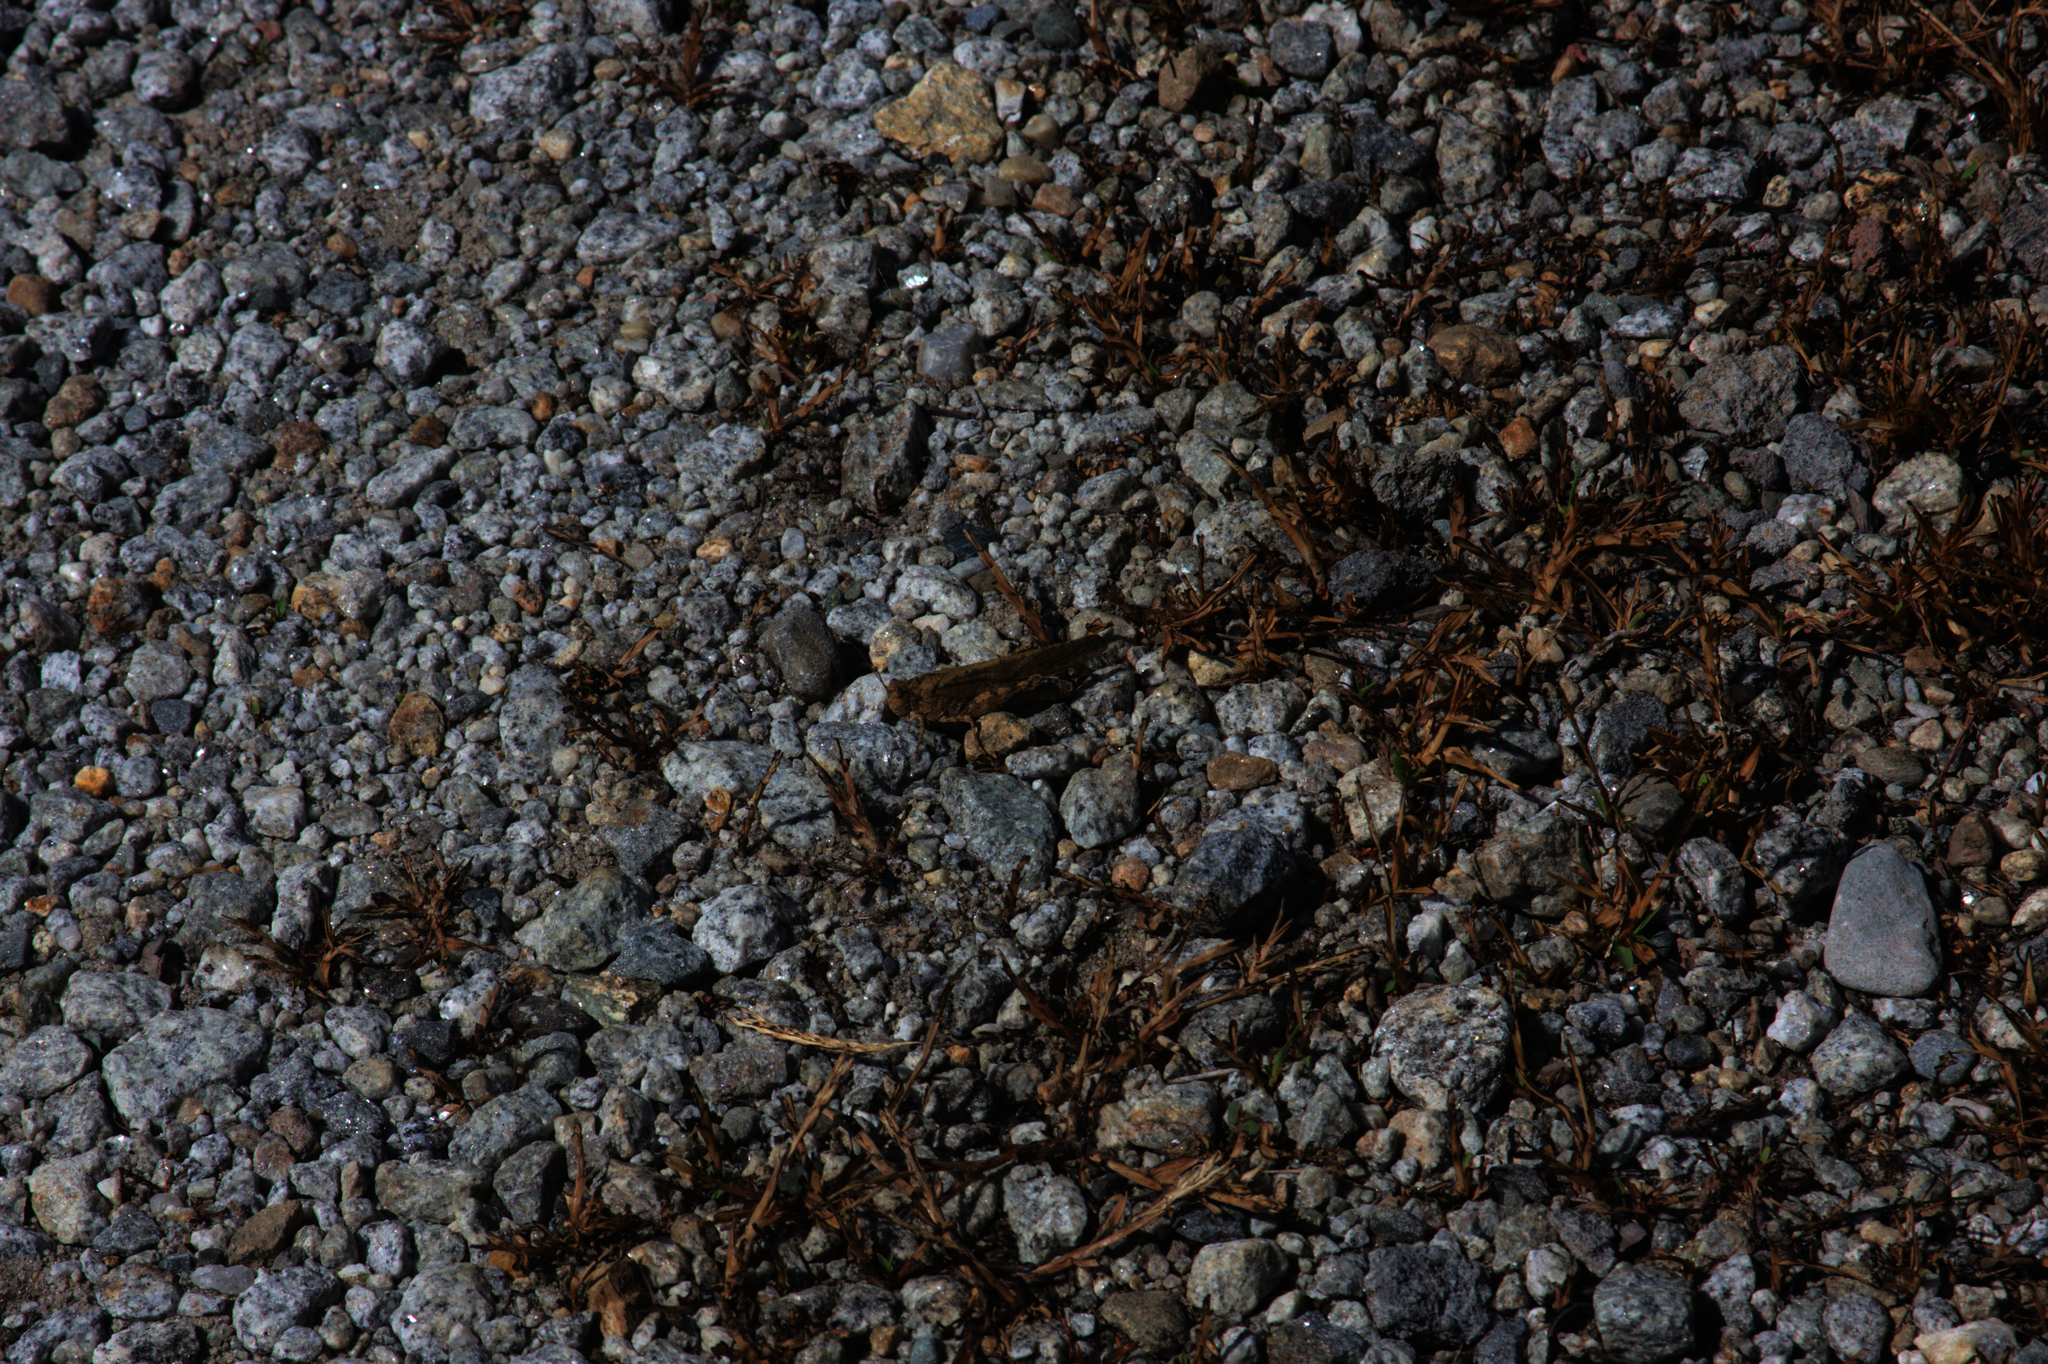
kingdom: Animalia
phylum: Arthropoda
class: Insecta
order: Orthoptera
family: Acrididae
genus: Dissosteira
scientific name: Dissosteira carolina
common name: Carolina grasshopper
